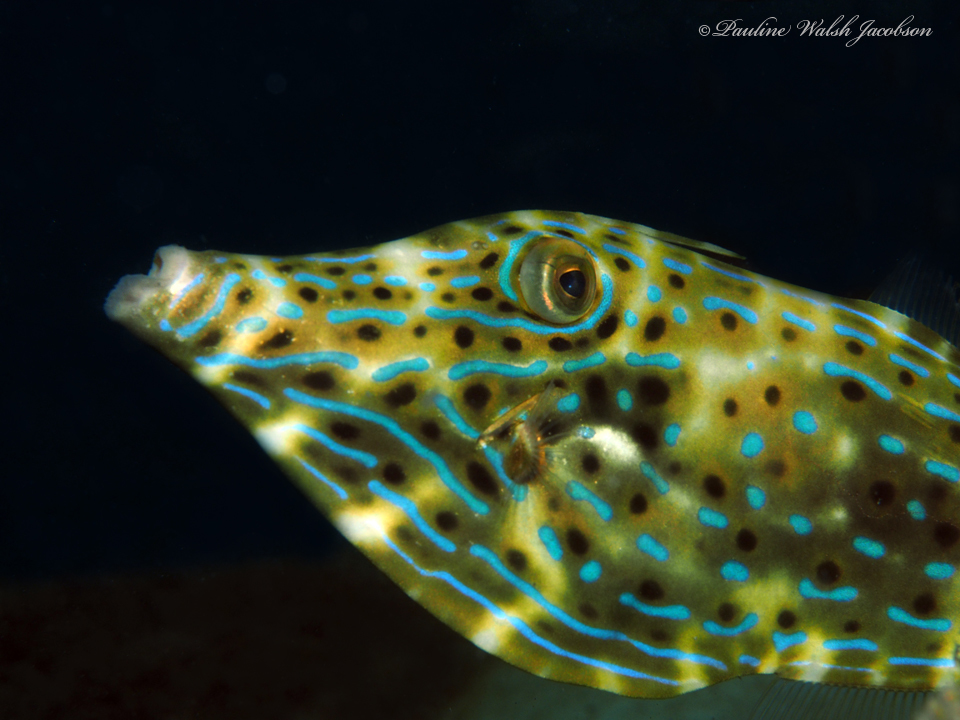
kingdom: Animalia
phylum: Chordata
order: Tetraodontiformes
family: Monacanthidae
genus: Aluterus
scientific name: Aluterus scriptus
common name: Scribbled leatherjacket filefish
